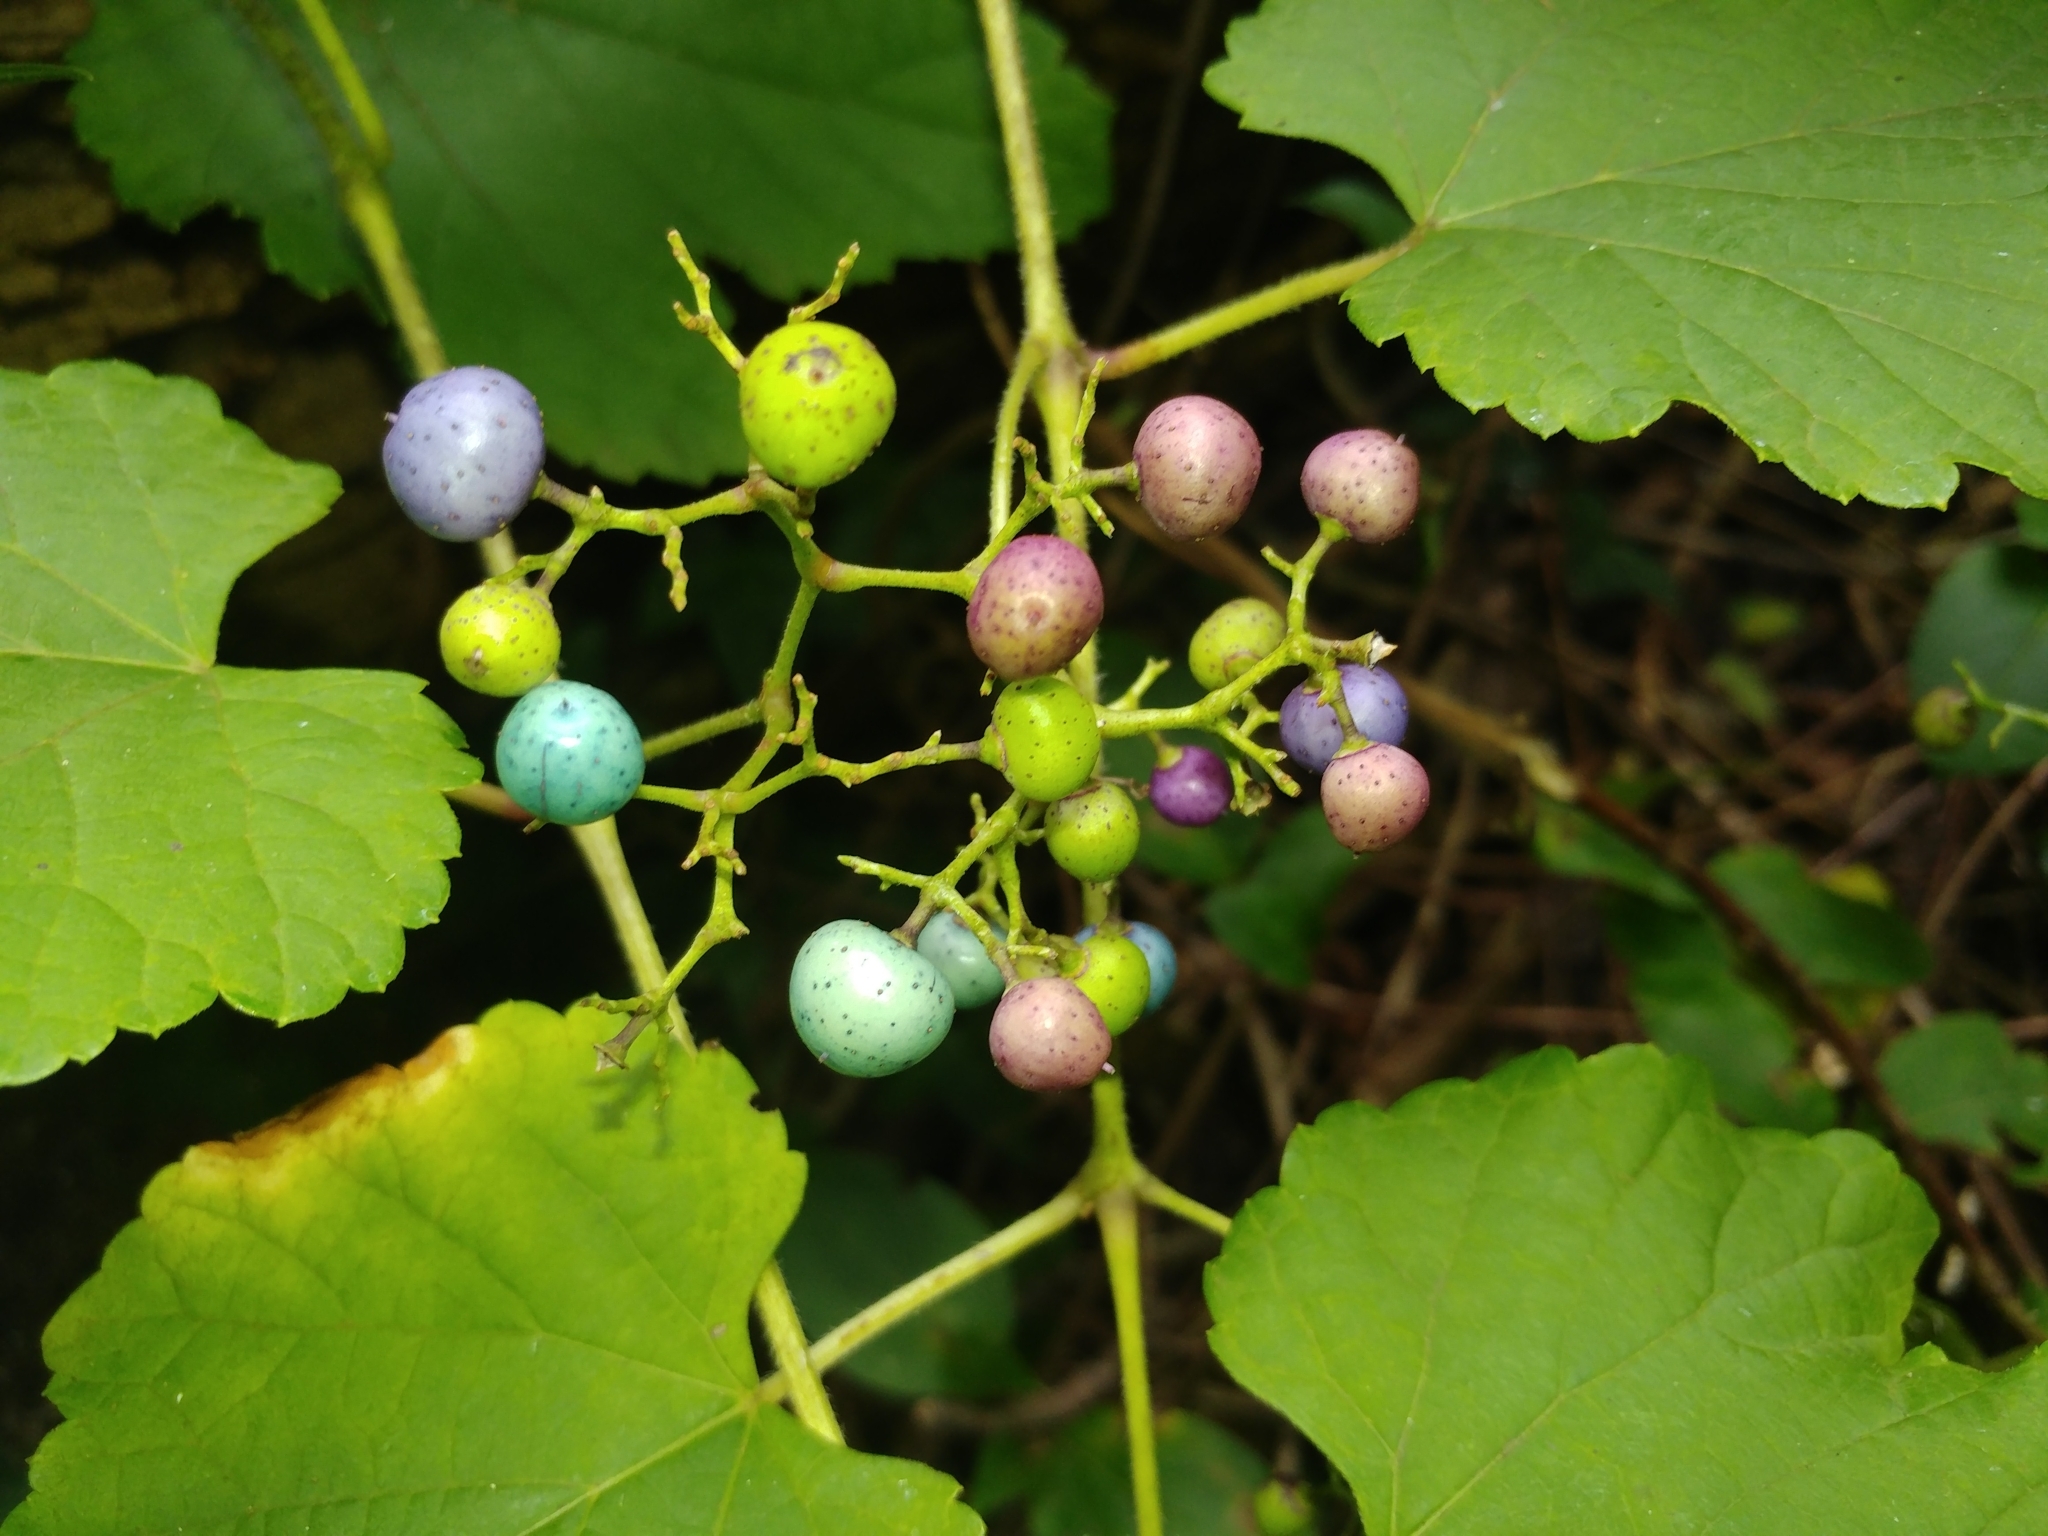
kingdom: Plantae
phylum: Tracheophyta
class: Magnoliopsida
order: Vitales
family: Vitaceae
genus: Ampelopsis
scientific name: Ampelopsis glandulosa
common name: Amur peppervine
